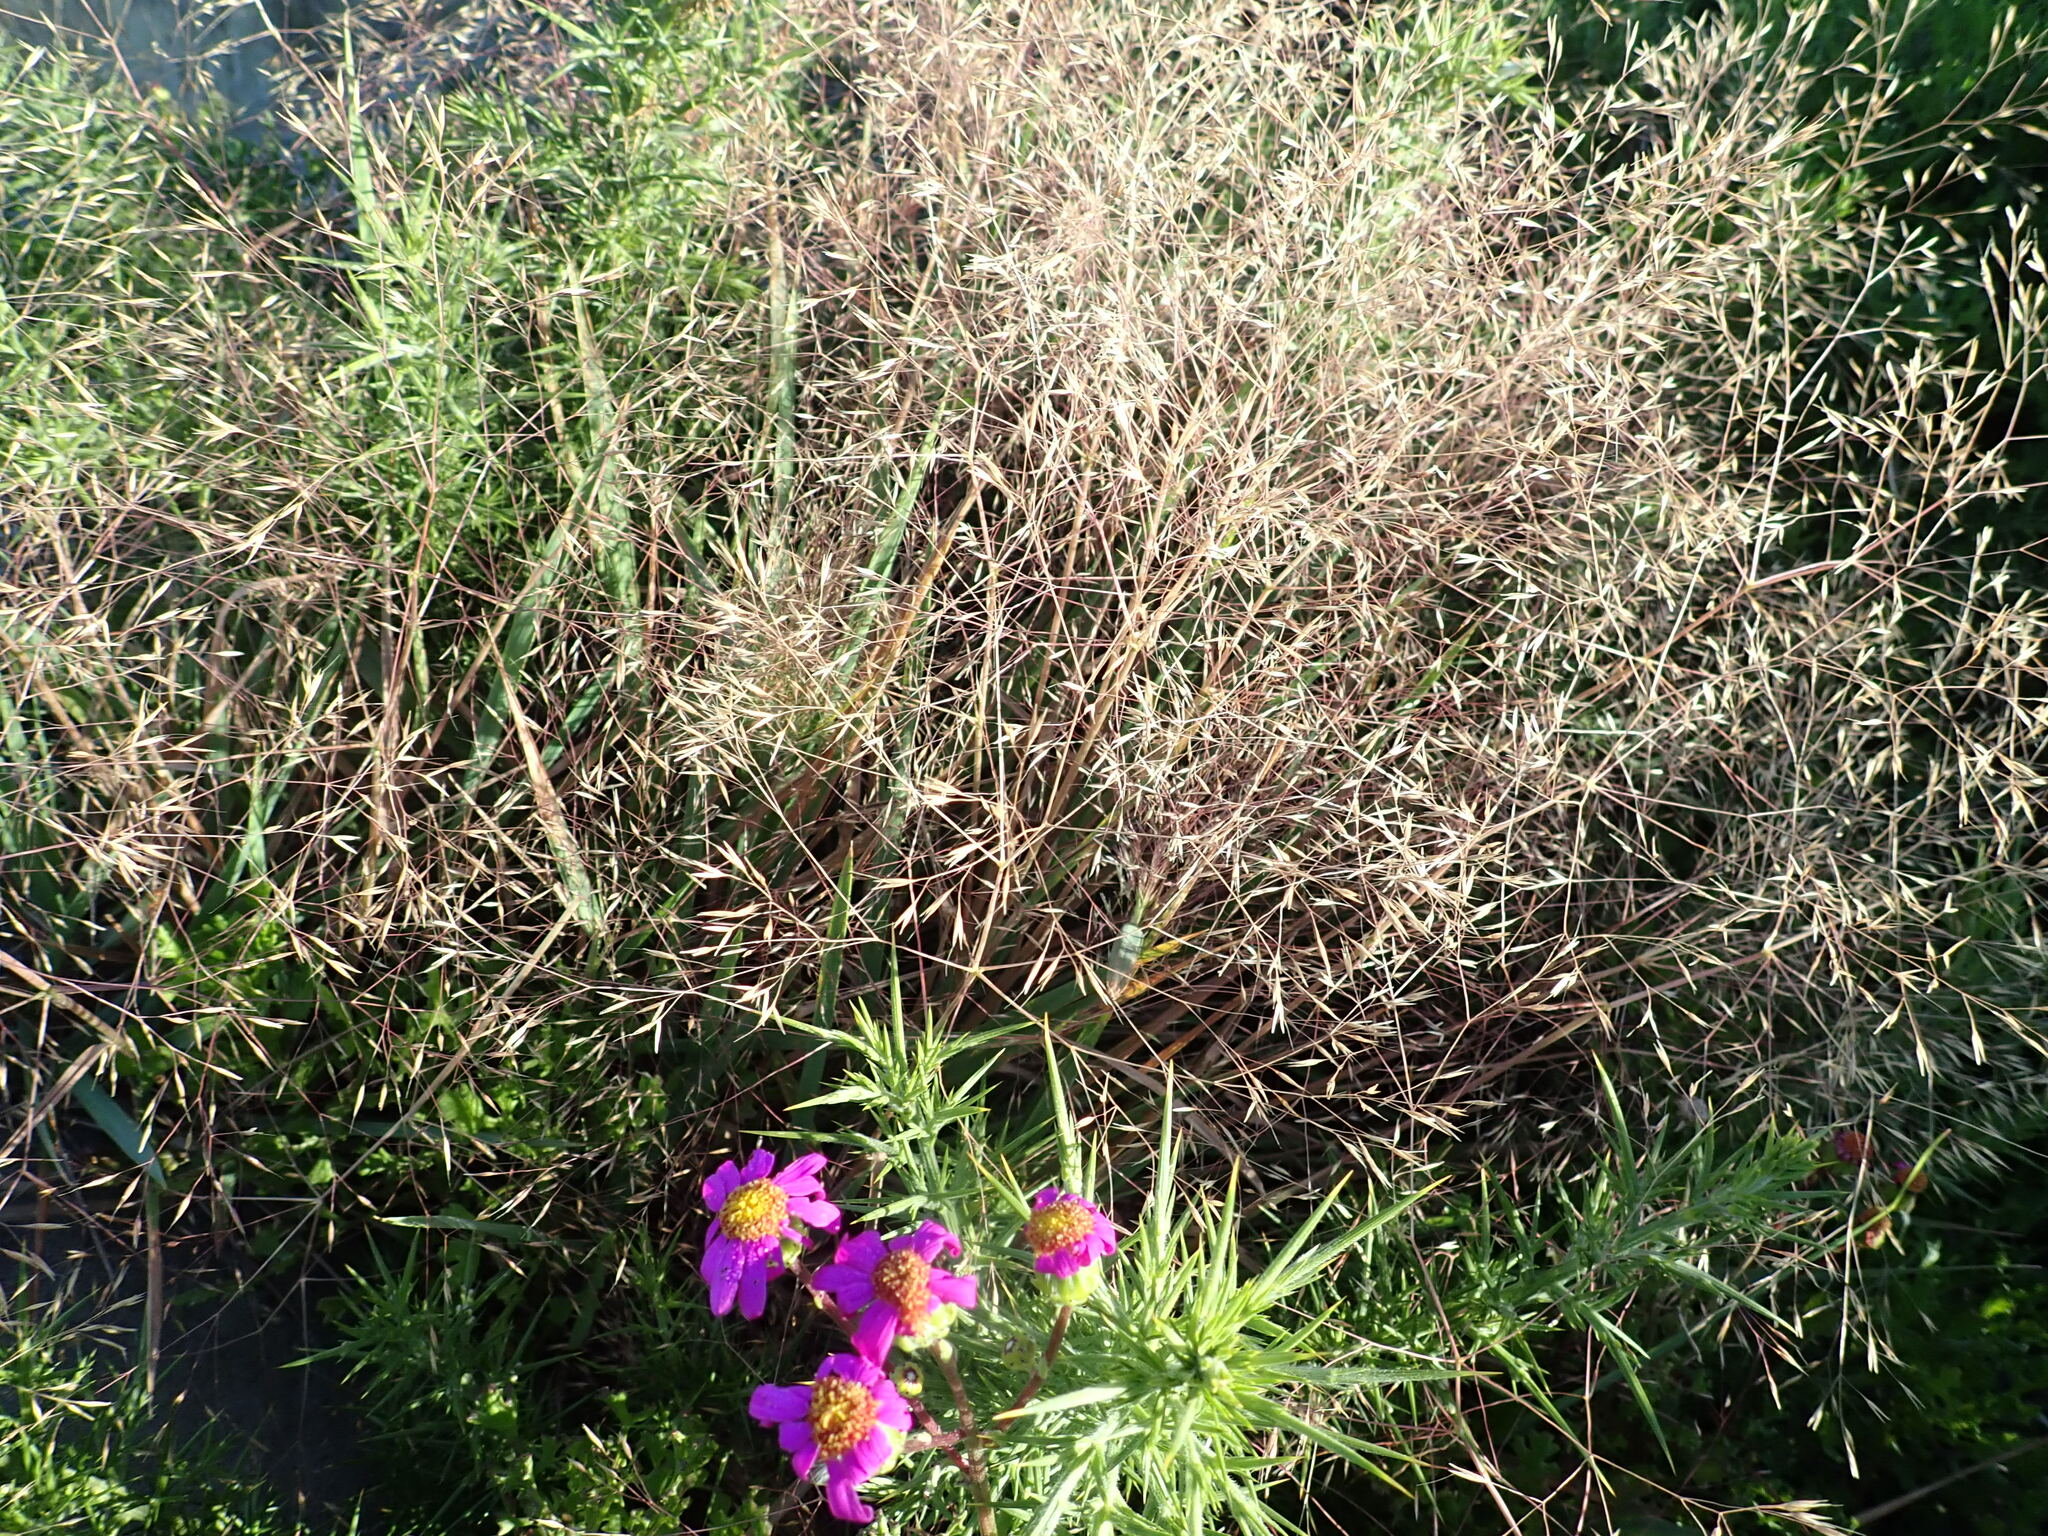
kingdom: Plantae
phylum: Tracheophyta
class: Liliopsida
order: Poales
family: Poaceae
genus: Lachnagrostis
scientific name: Lachnagrostis billardierei
